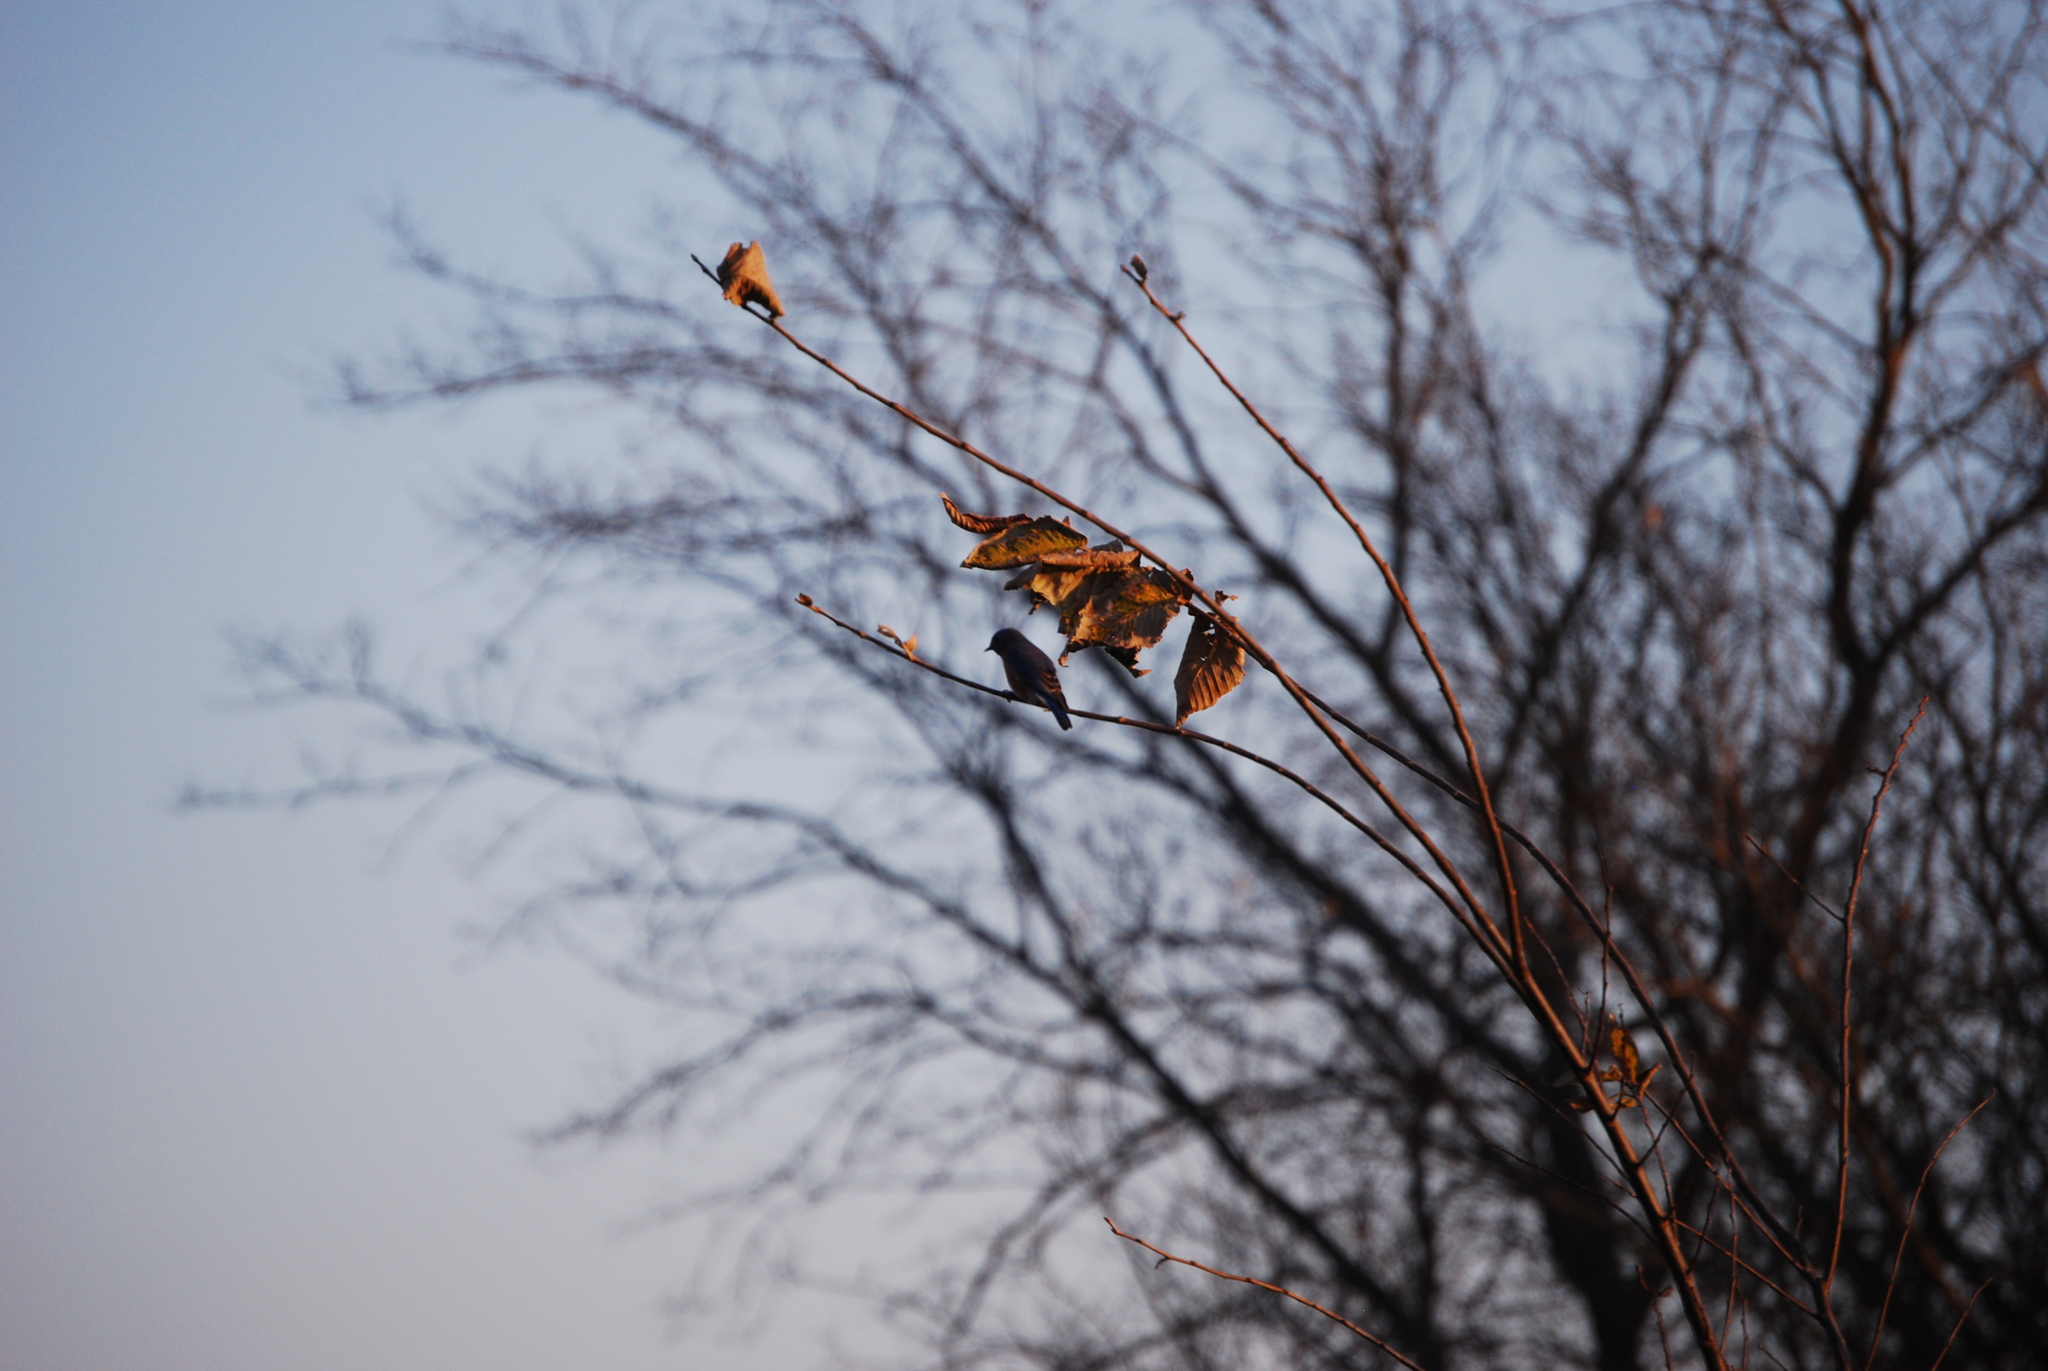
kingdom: Animalia
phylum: Chordata
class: Aves
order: Passeriformes
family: Turdidae
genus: Sialia
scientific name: Sialia sialis
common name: Eastern bluebird
